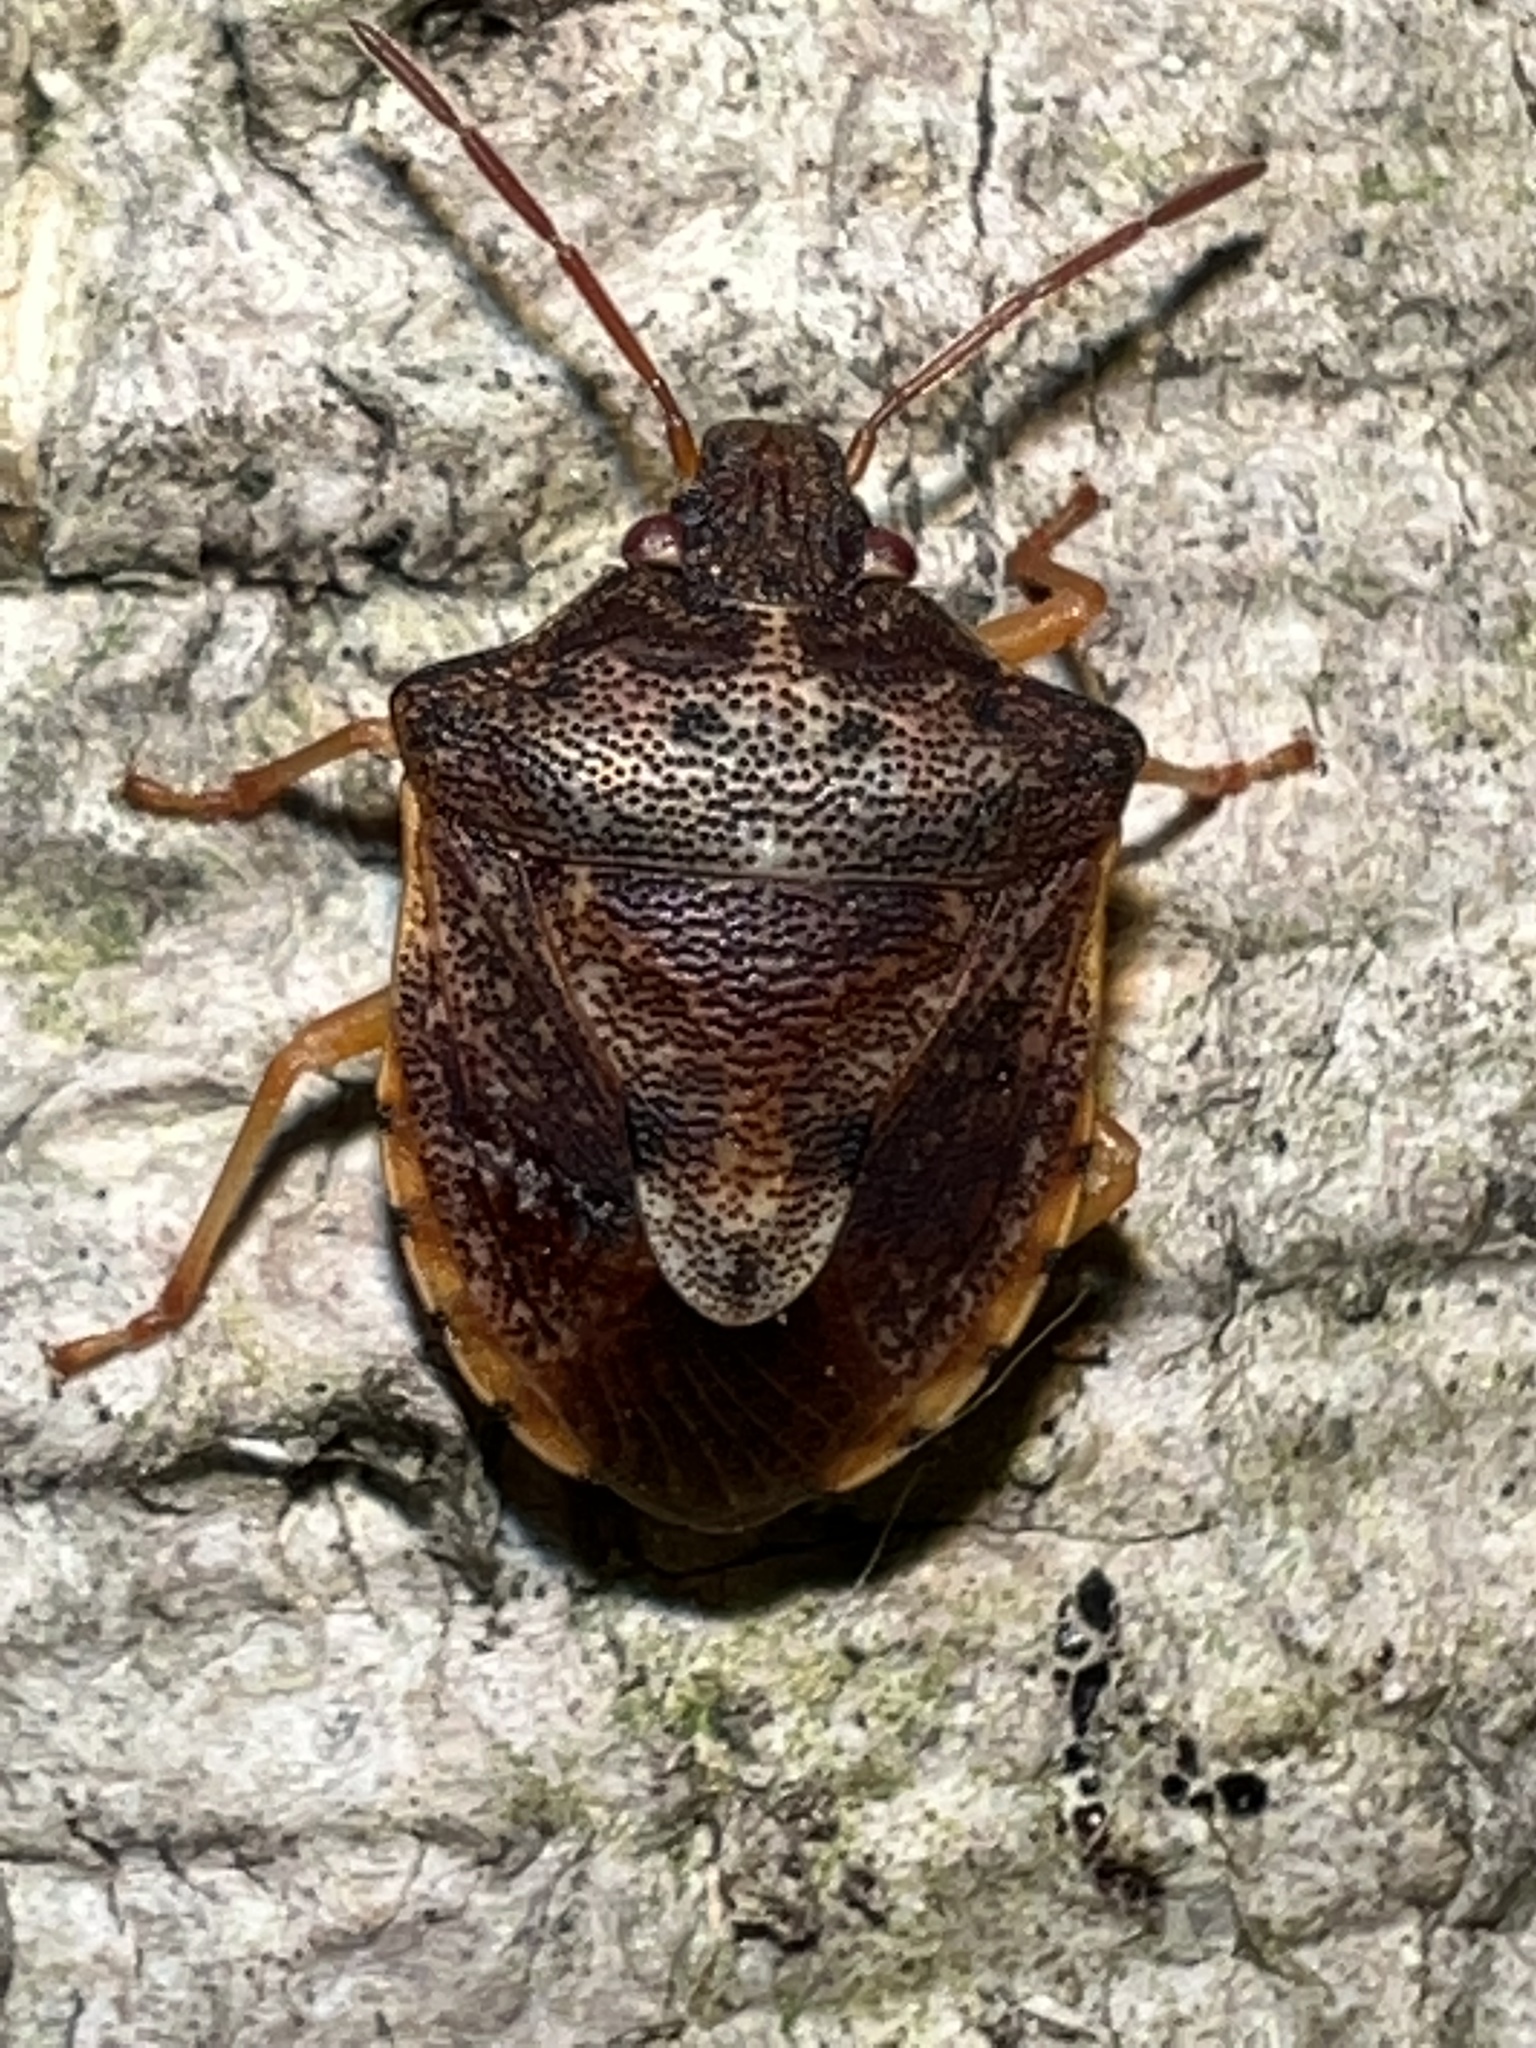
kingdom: Animalia
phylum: Arthropoda
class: Insecta
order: Hemiptera
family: Pentatomidae
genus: Dendrocoris
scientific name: Dendrocoris humeralis
